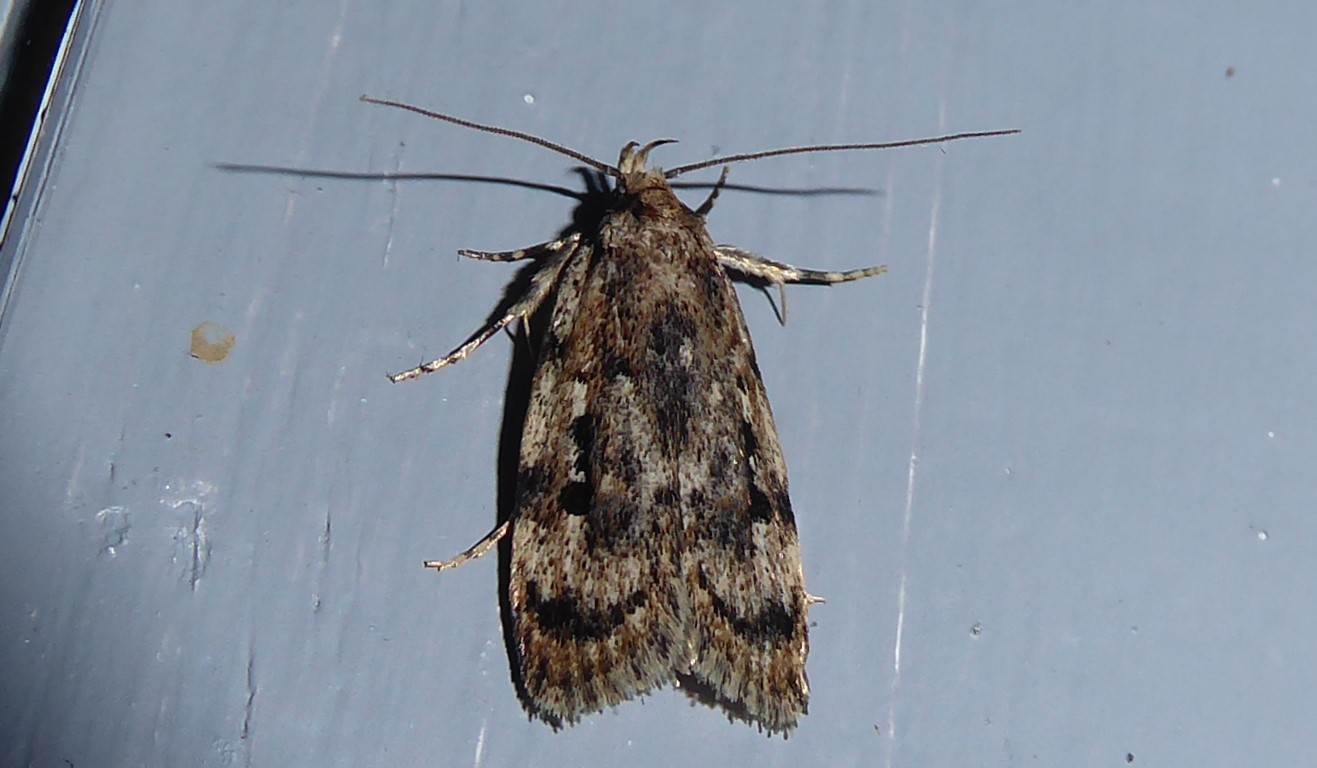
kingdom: Animalia
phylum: Arthropoda
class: Insecta
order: Lepidoptera
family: Oecophoridae
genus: Barea
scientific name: Barea exarcha
